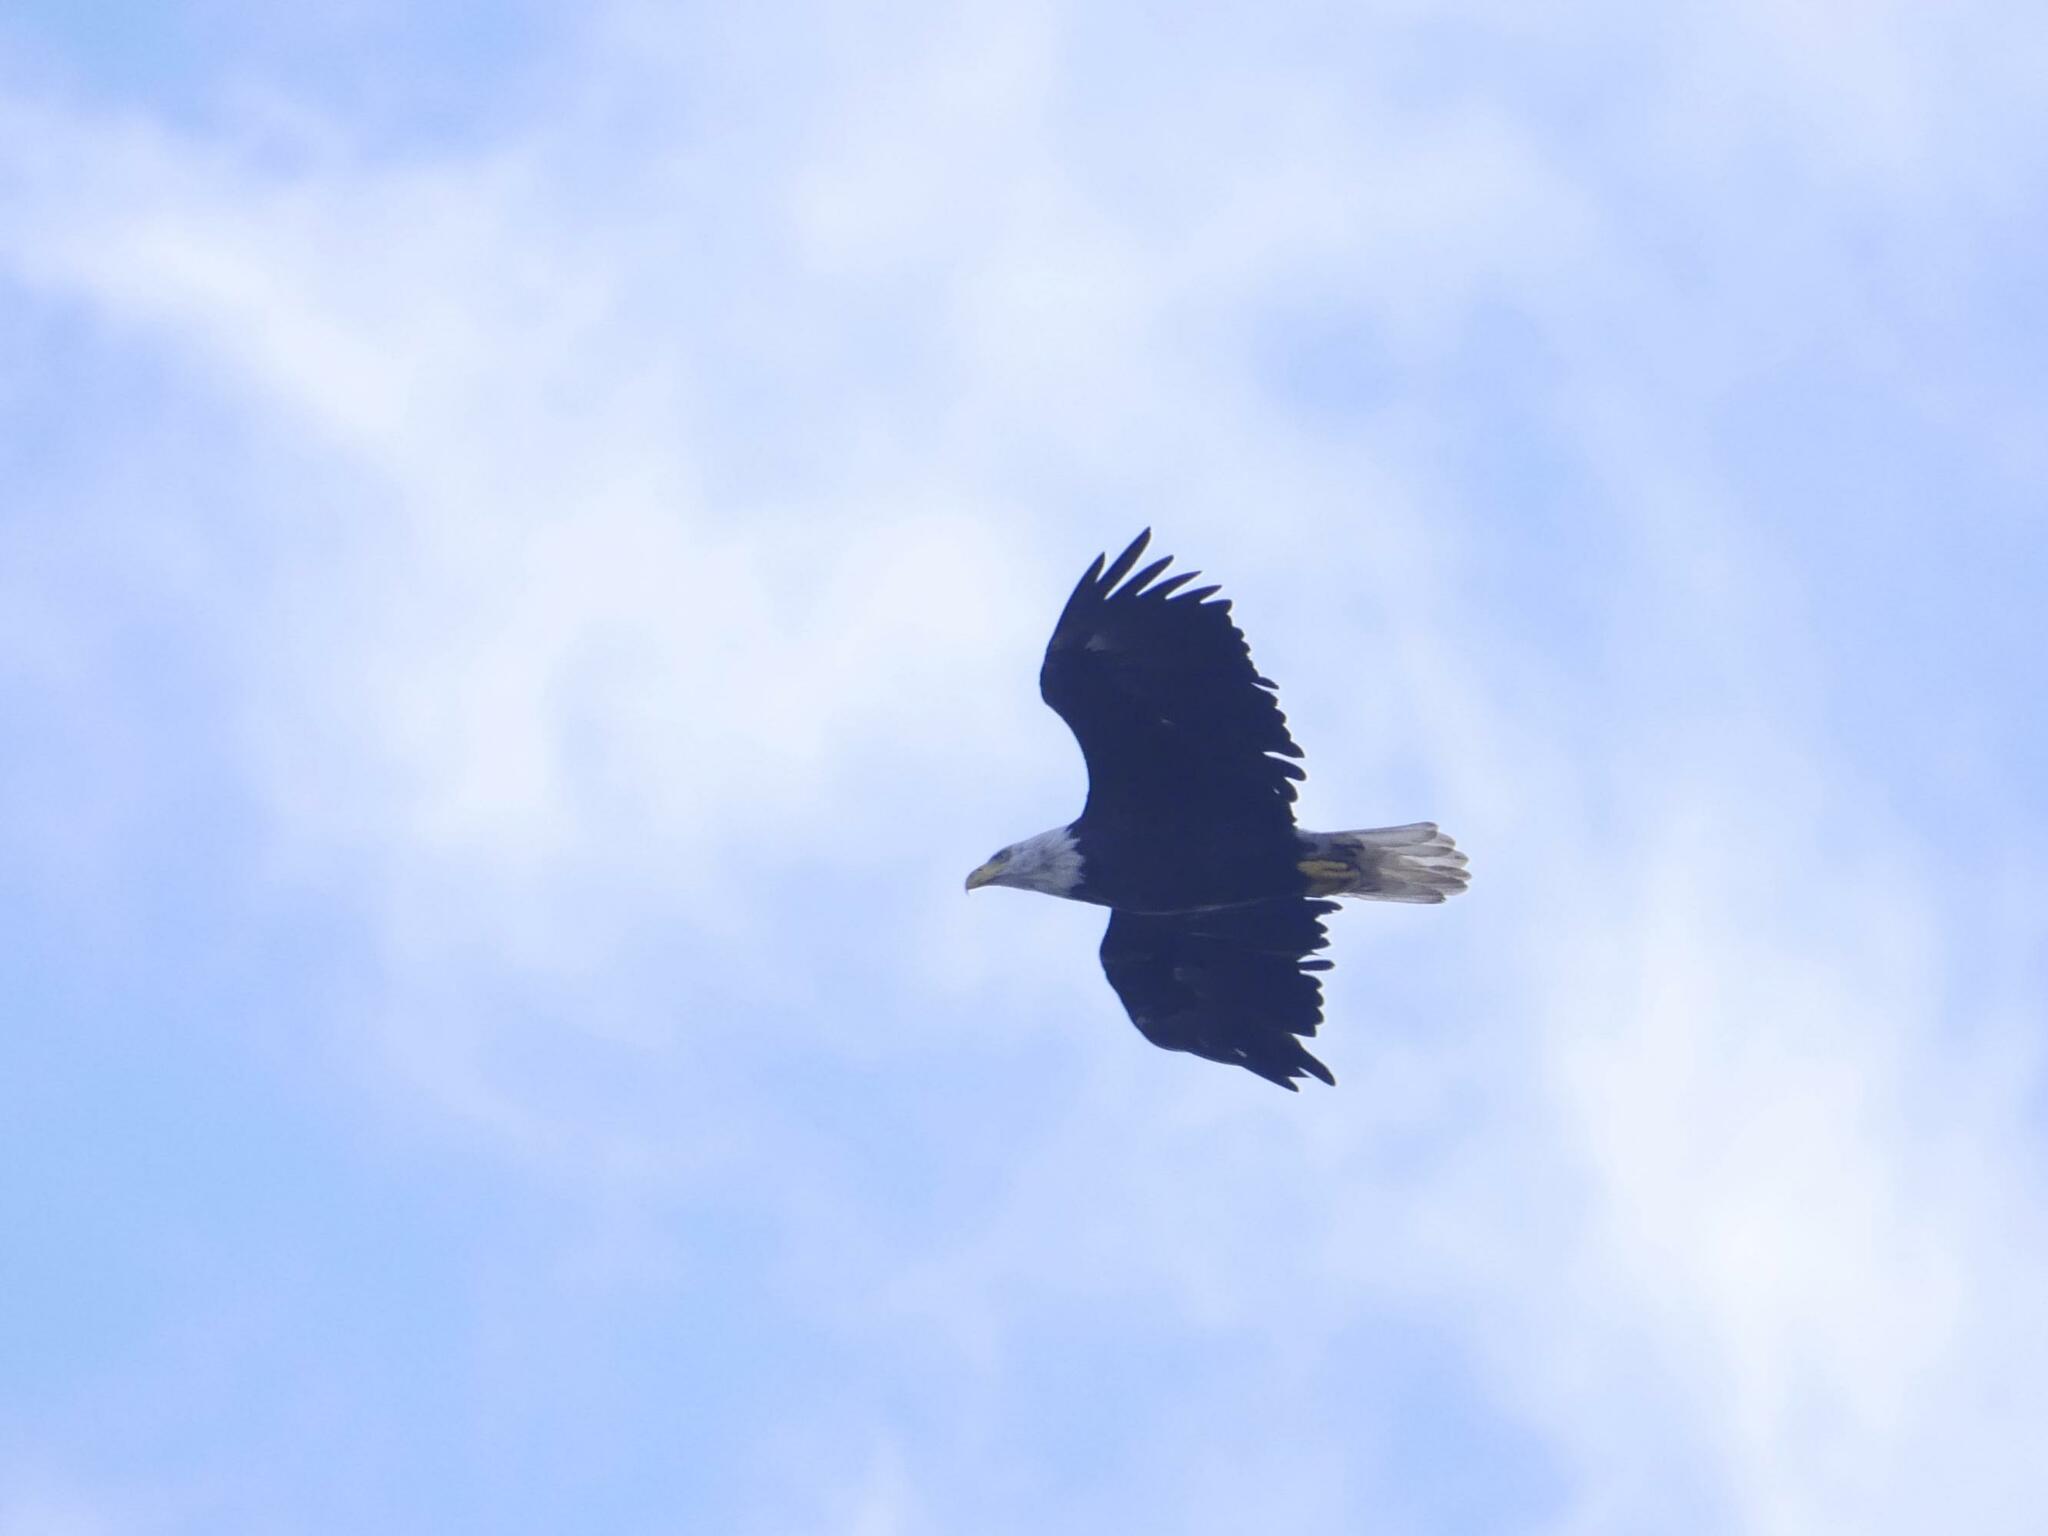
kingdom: Animalia
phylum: Chordata
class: Aves
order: Accipitriformes
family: Accipitridae
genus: Haliaeetus
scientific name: Haliaeetus leucocephalus
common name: Bald eagle
